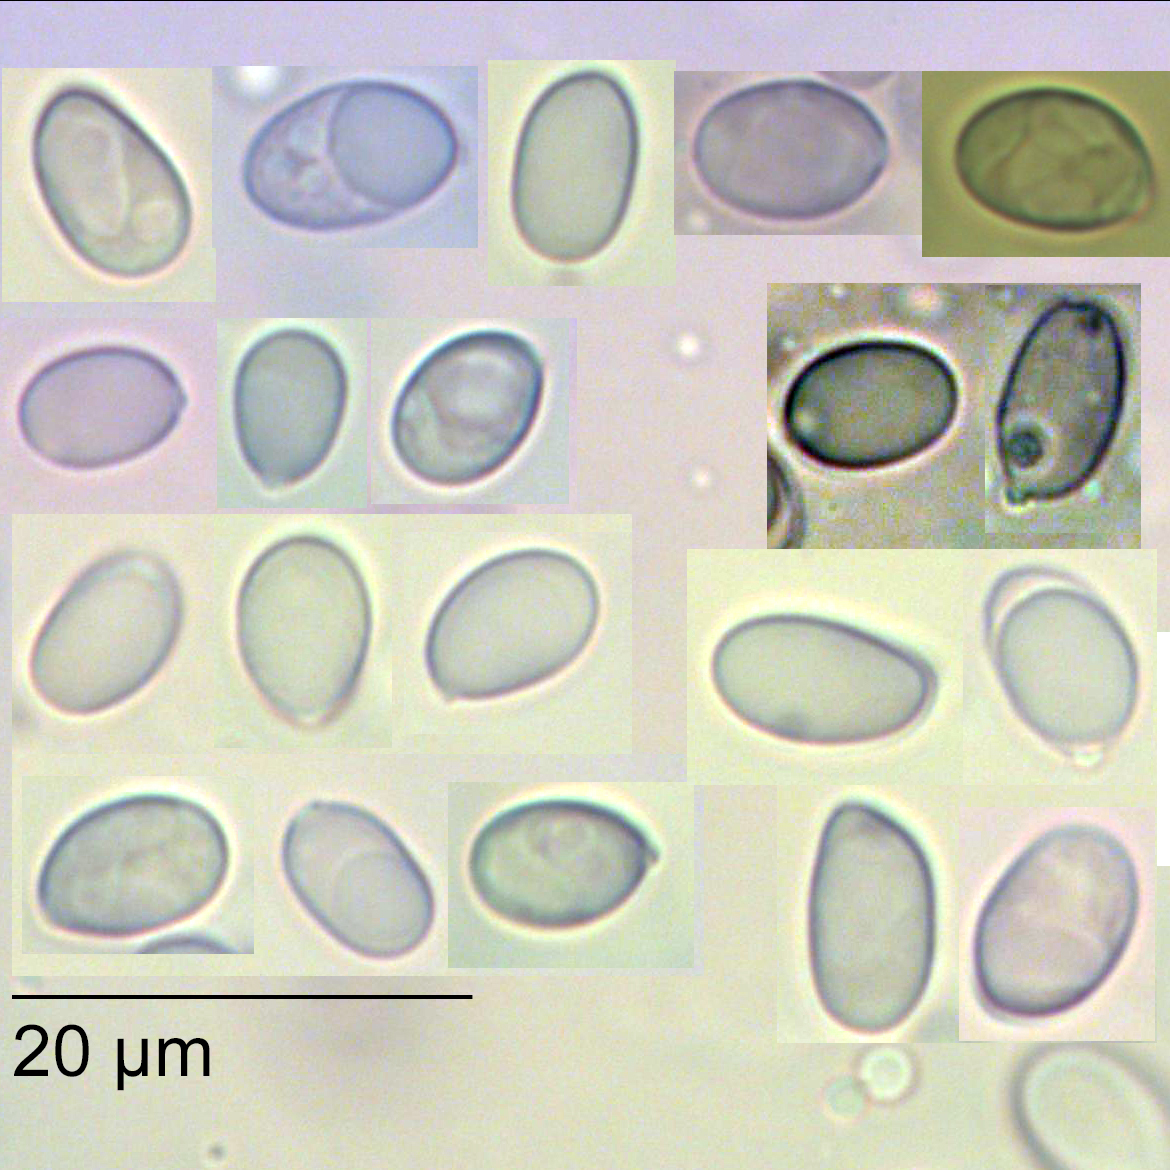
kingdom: Fungi
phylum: Basidiomycota
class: Agaricomycetes
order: Agaricales
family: Mycenaceae
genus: Mycena
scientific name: Mycena atroavellanea
